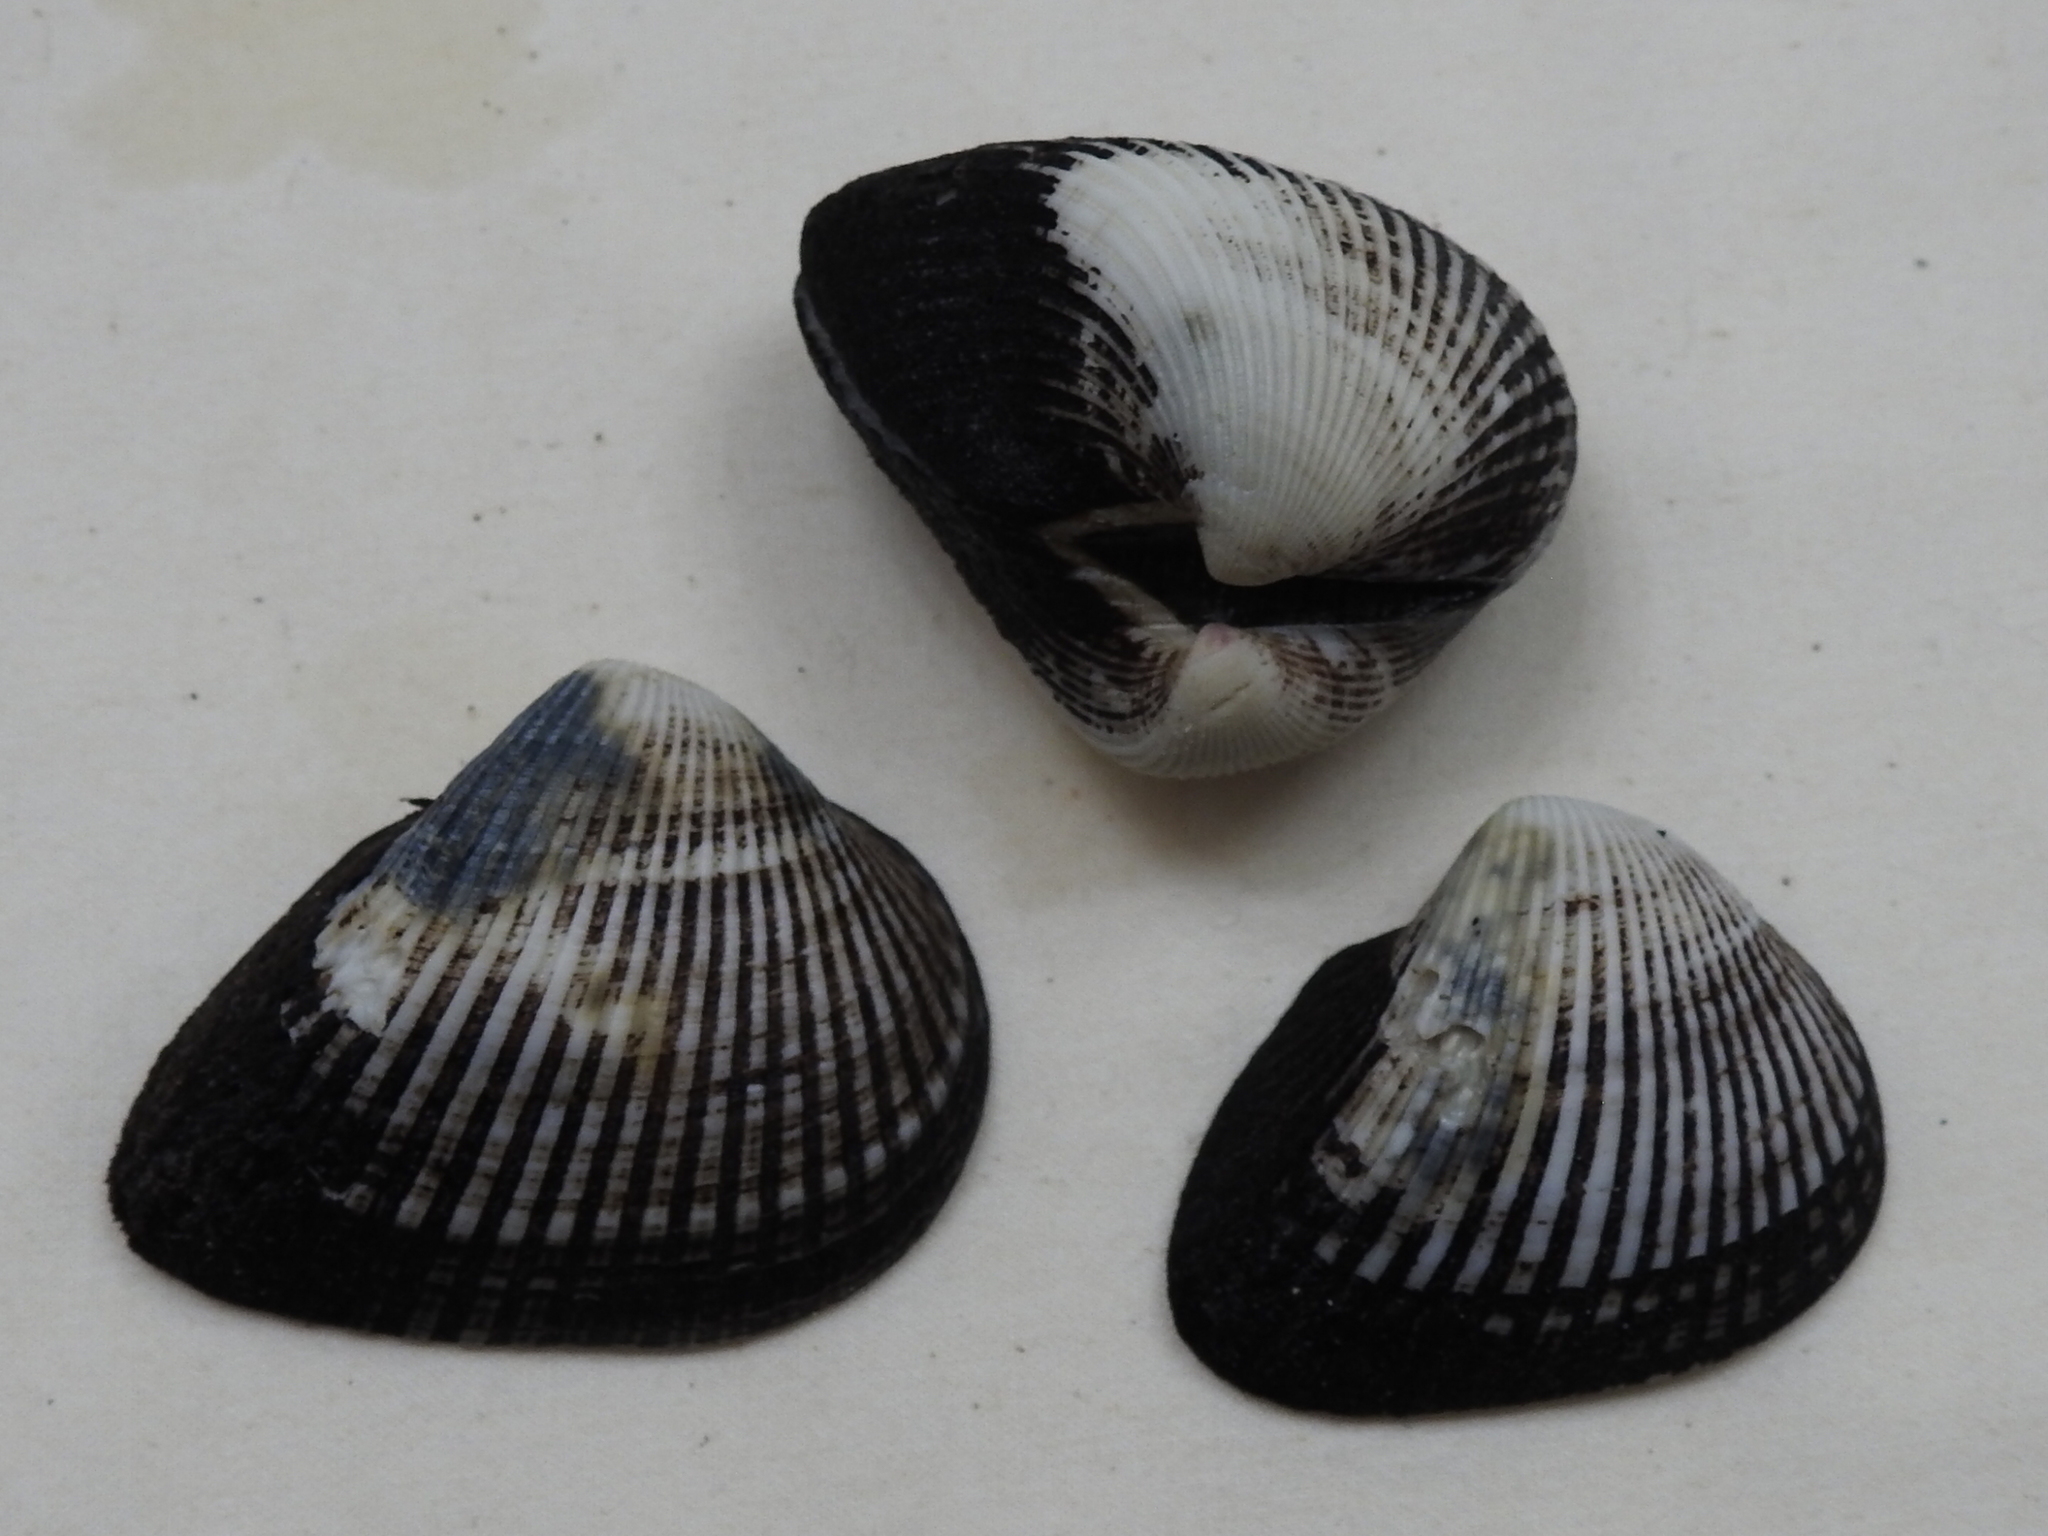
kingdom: Animalia
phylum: Mollusca
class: Bivalvia
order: Arcida
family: Noetiidae
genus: Noetia
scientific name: Noetia ponderosa
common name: Ponderous ark
